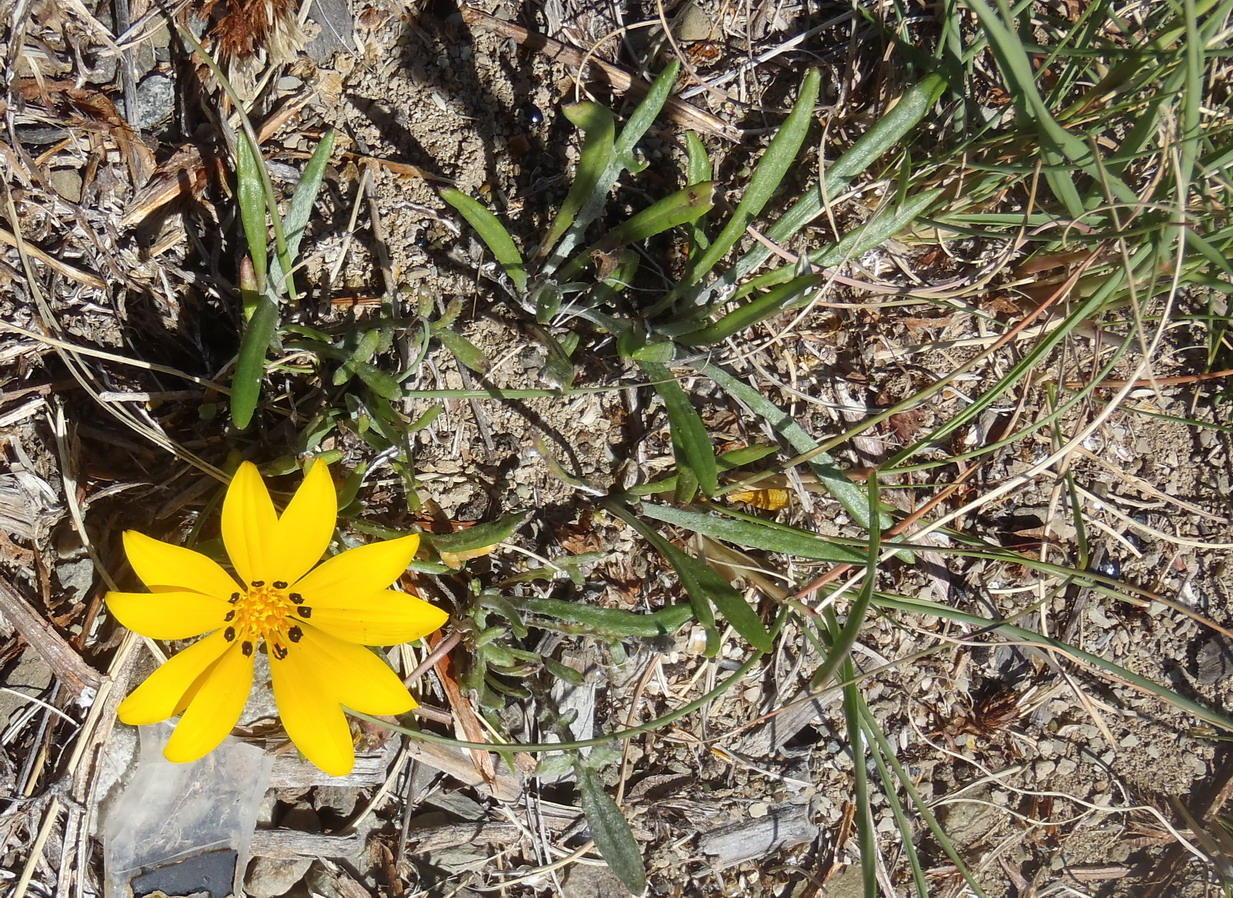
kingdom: Plantae
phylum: Tracheophyta
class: Magnoliopsida
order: Asterales
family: Asteraceae
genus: Gazania
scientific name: Gazania krebsiana
